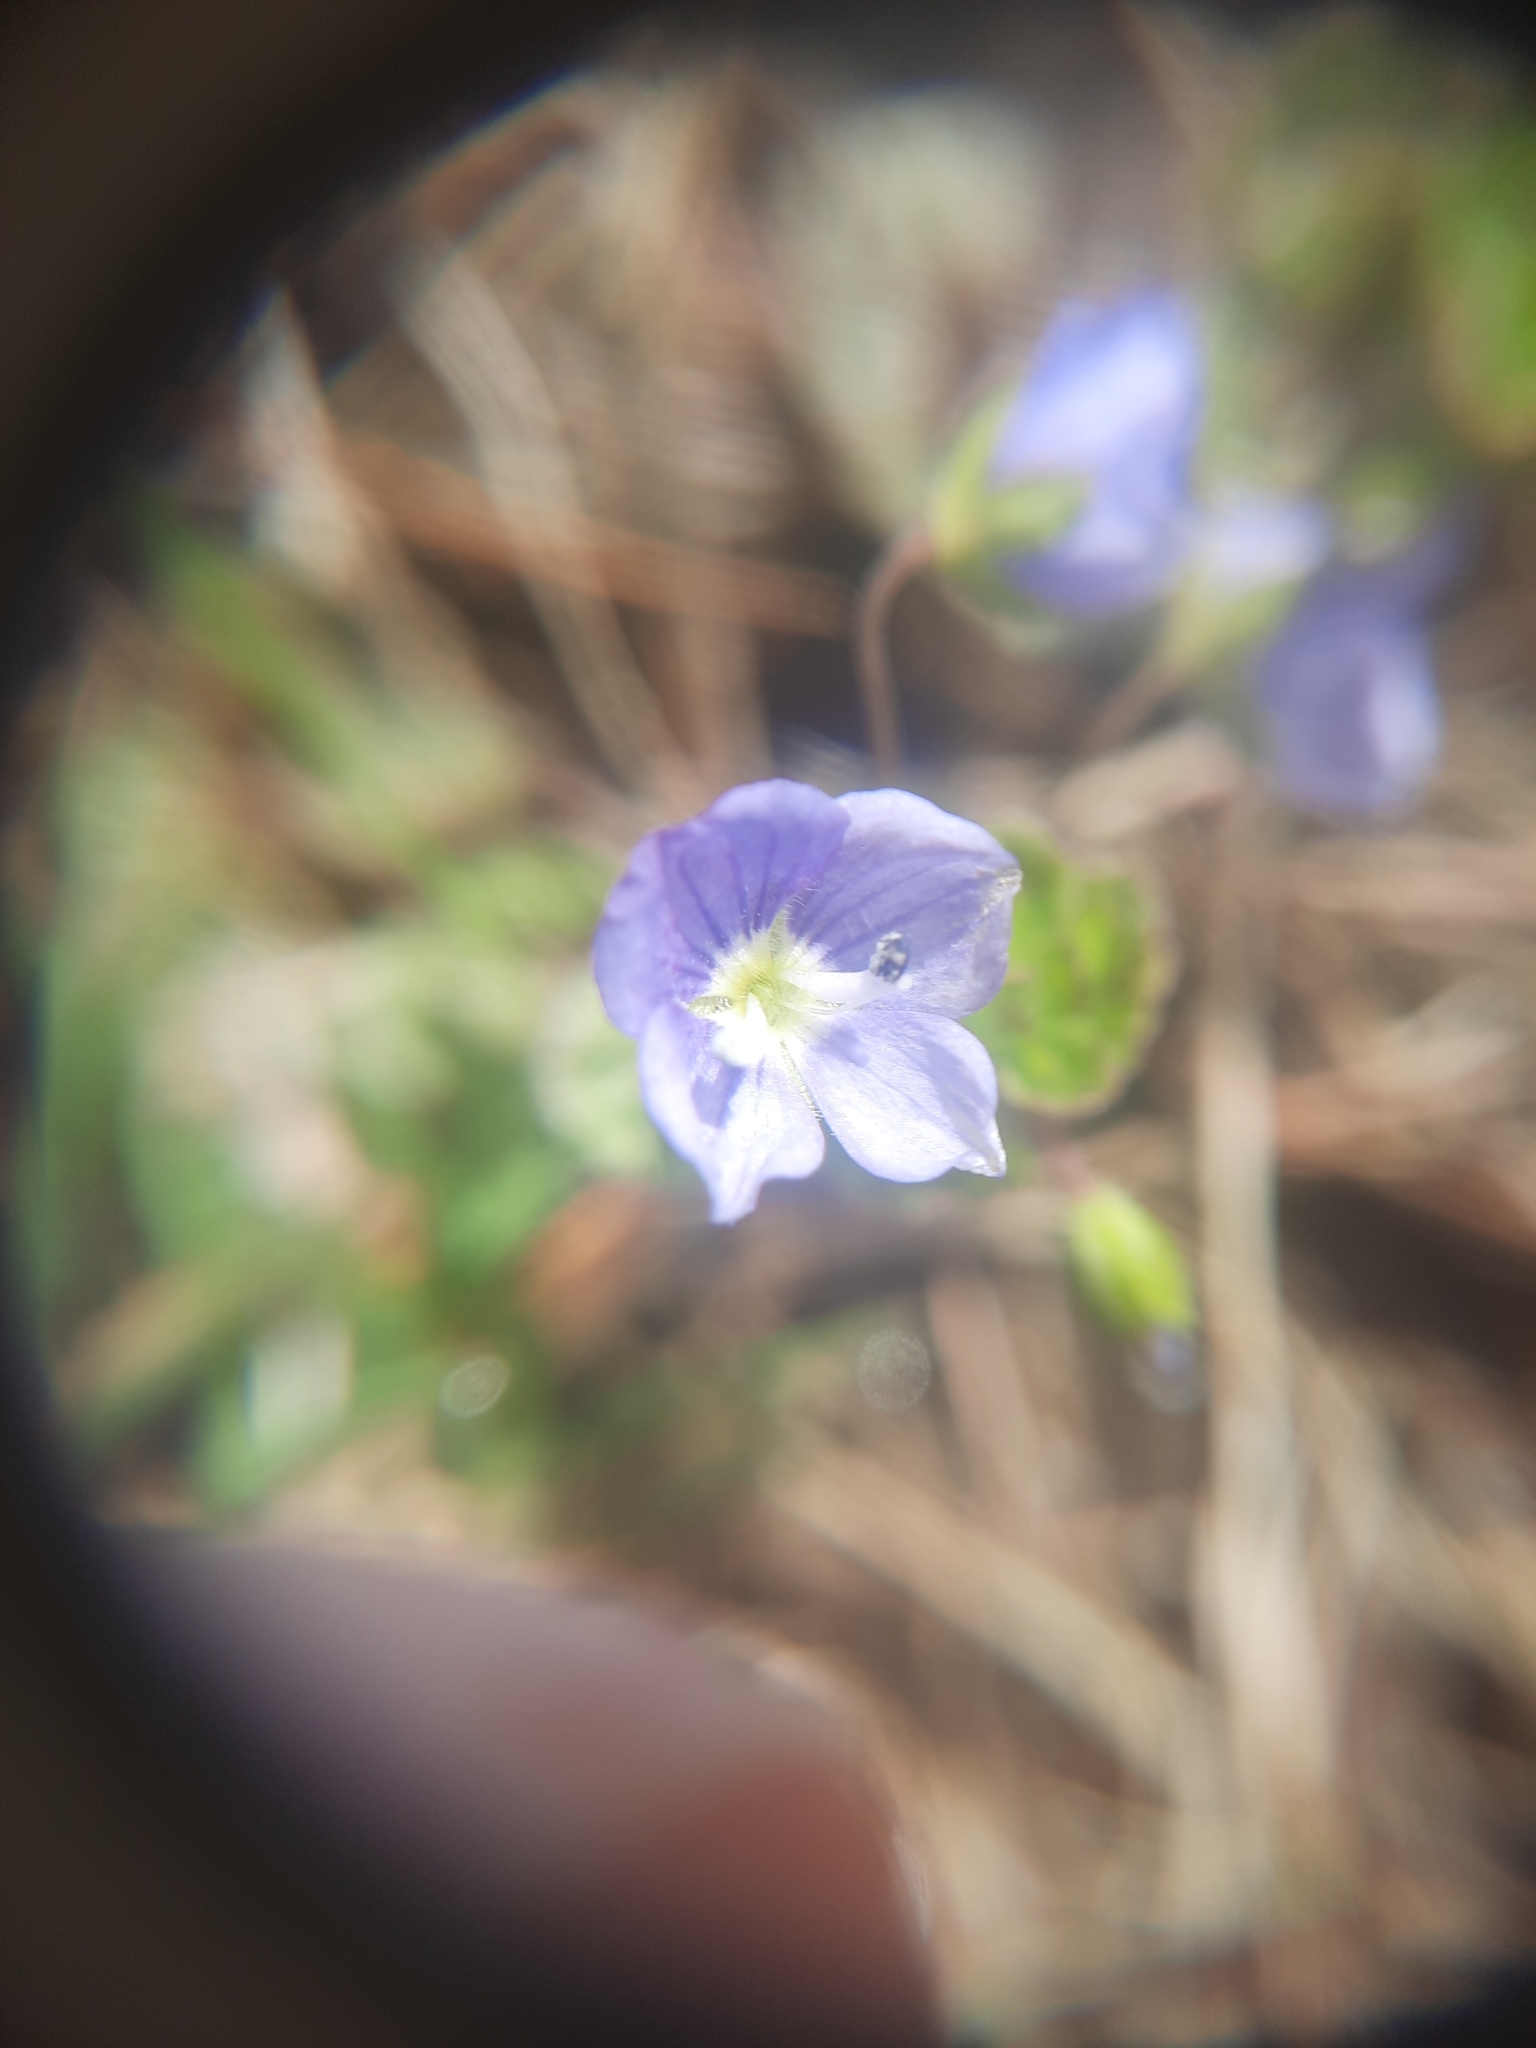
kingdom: Plantae
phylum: Tracheophyta
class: Magnoliopsida
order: Lamiales
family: Plantaginaceae
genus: Veronica
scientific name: Veronica filiformis
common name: Slender speedwell
